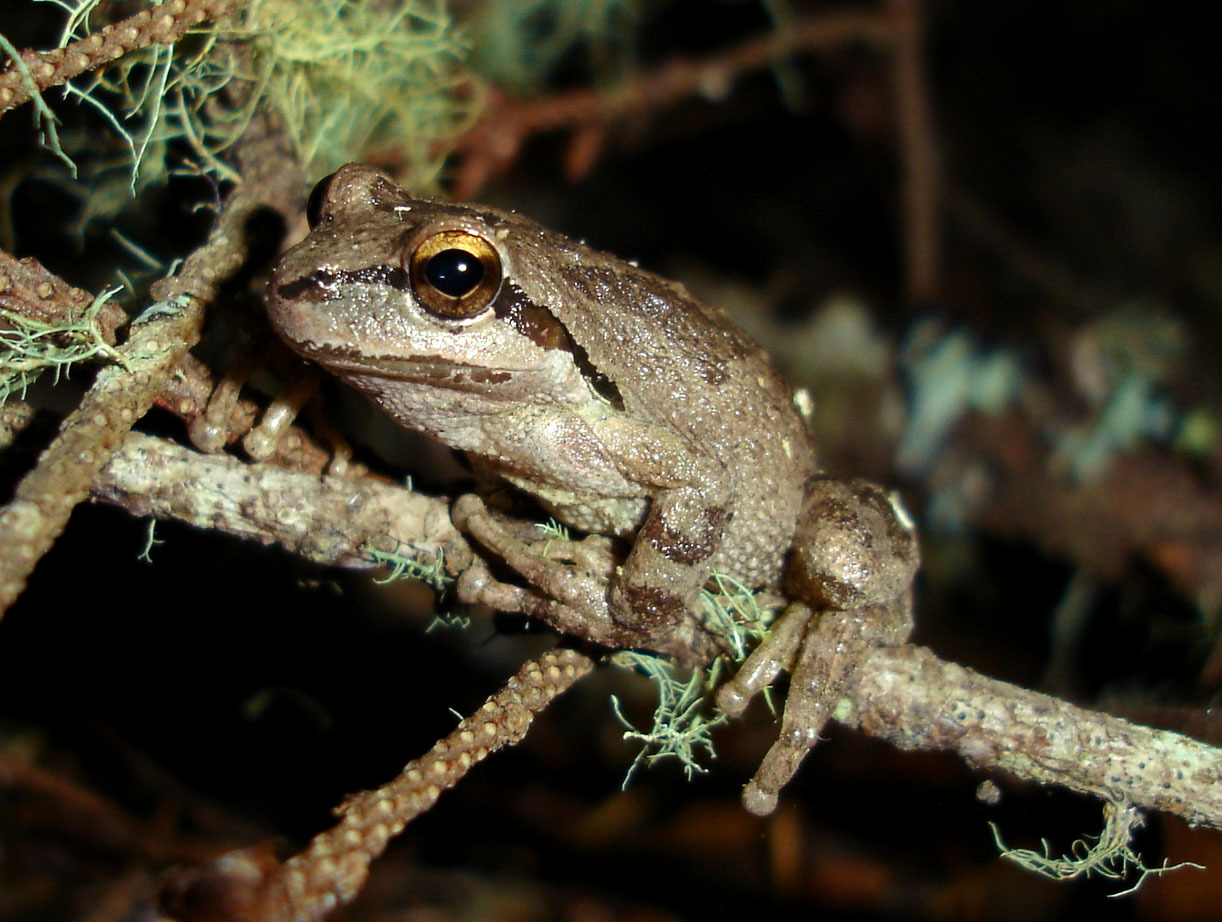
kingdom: Animalia
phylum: Chordata
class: Amphibia
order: Anura
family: Hylidae
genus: Pseudacris
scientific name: Pseudacris regilla
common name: Pacific chorus frog
